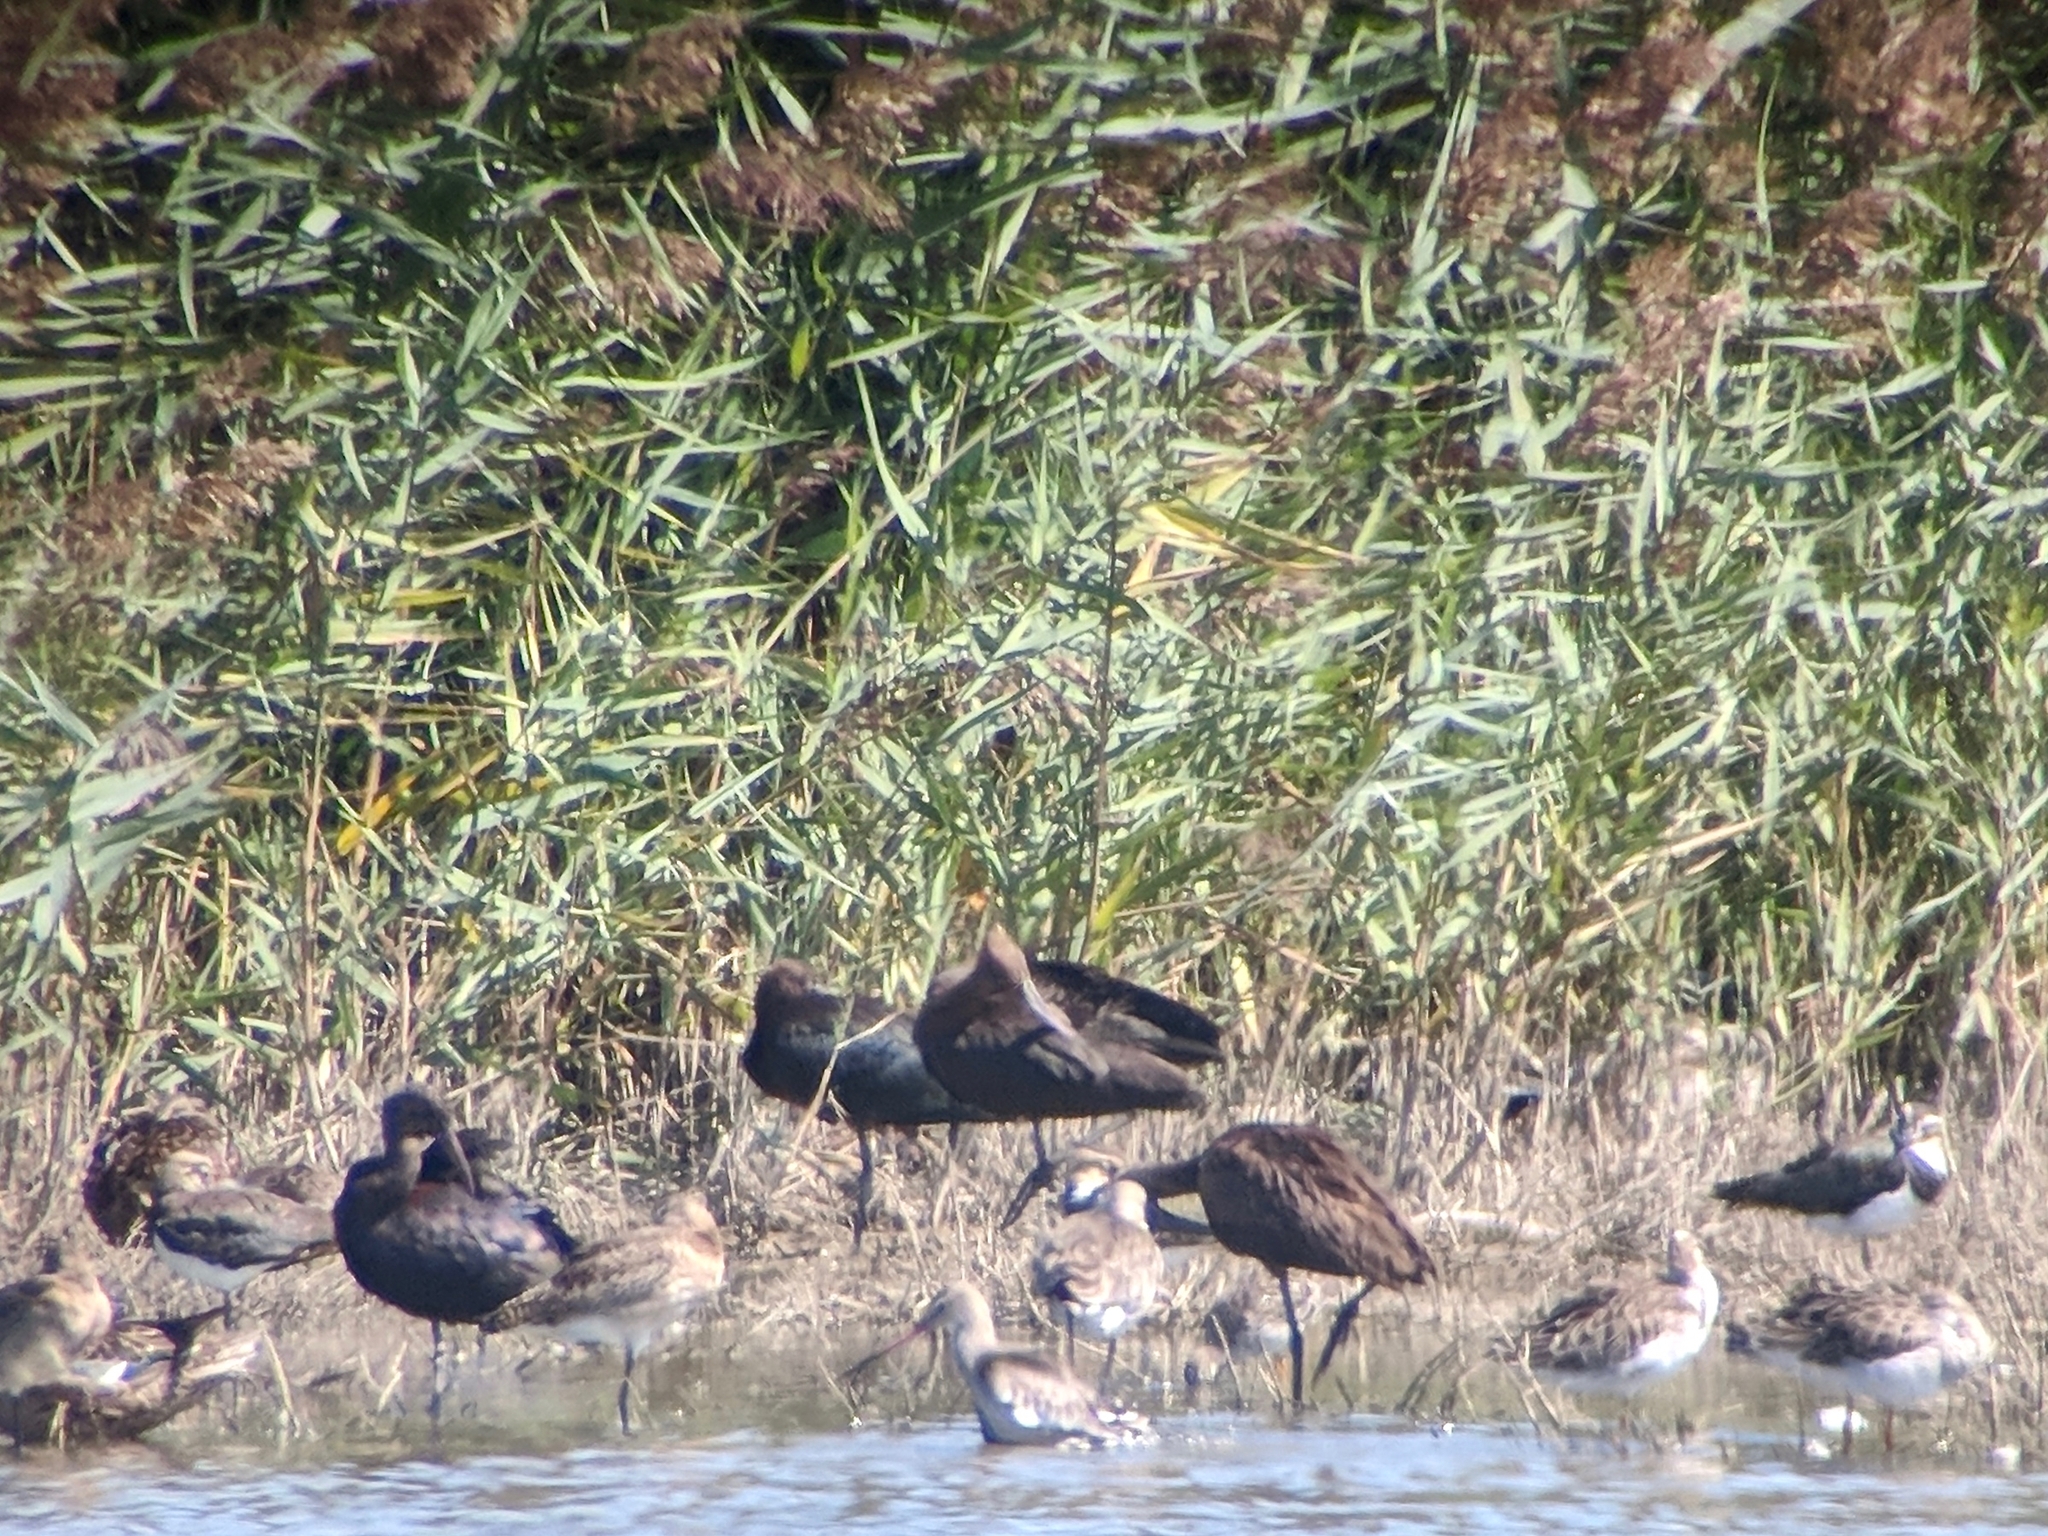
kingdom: Animalia
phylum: Chordata
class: Aves
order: Charadriiformes
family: Scolopacidae
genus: Limosa
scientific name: Limosa limosa
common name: Black-tailed godwit
